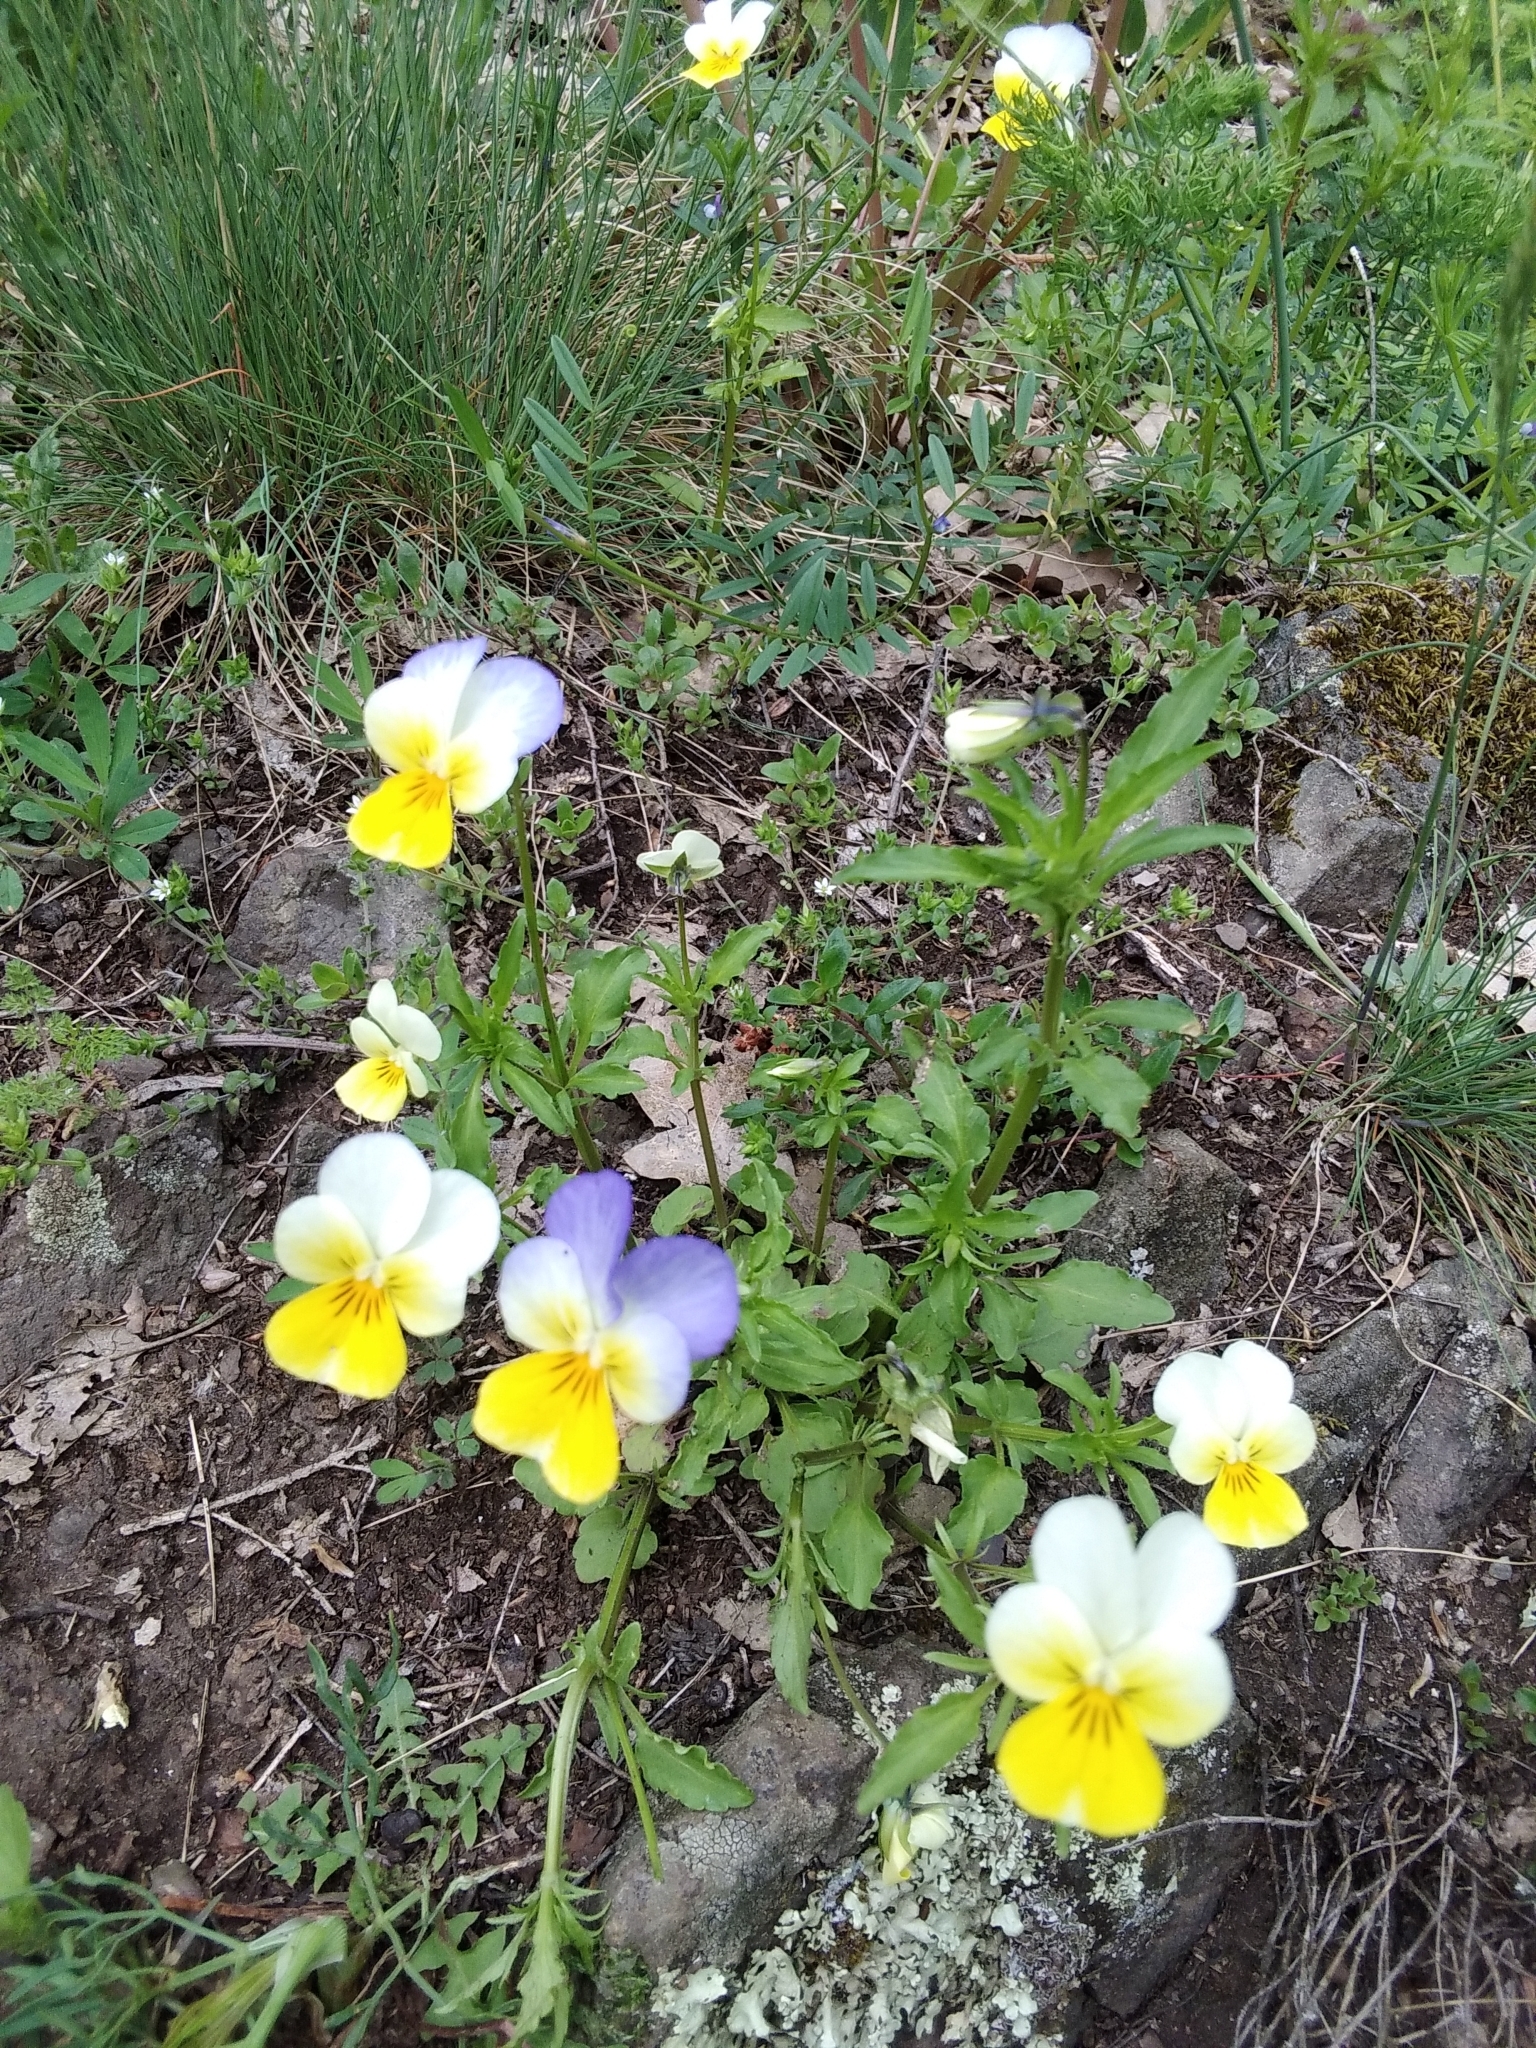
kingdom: Plantae
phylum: Tracheophyta
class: Magnoliopsida
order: Malpighiales
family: Violaceae
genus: Viola
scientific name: Viola tricolor
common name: Pansy
